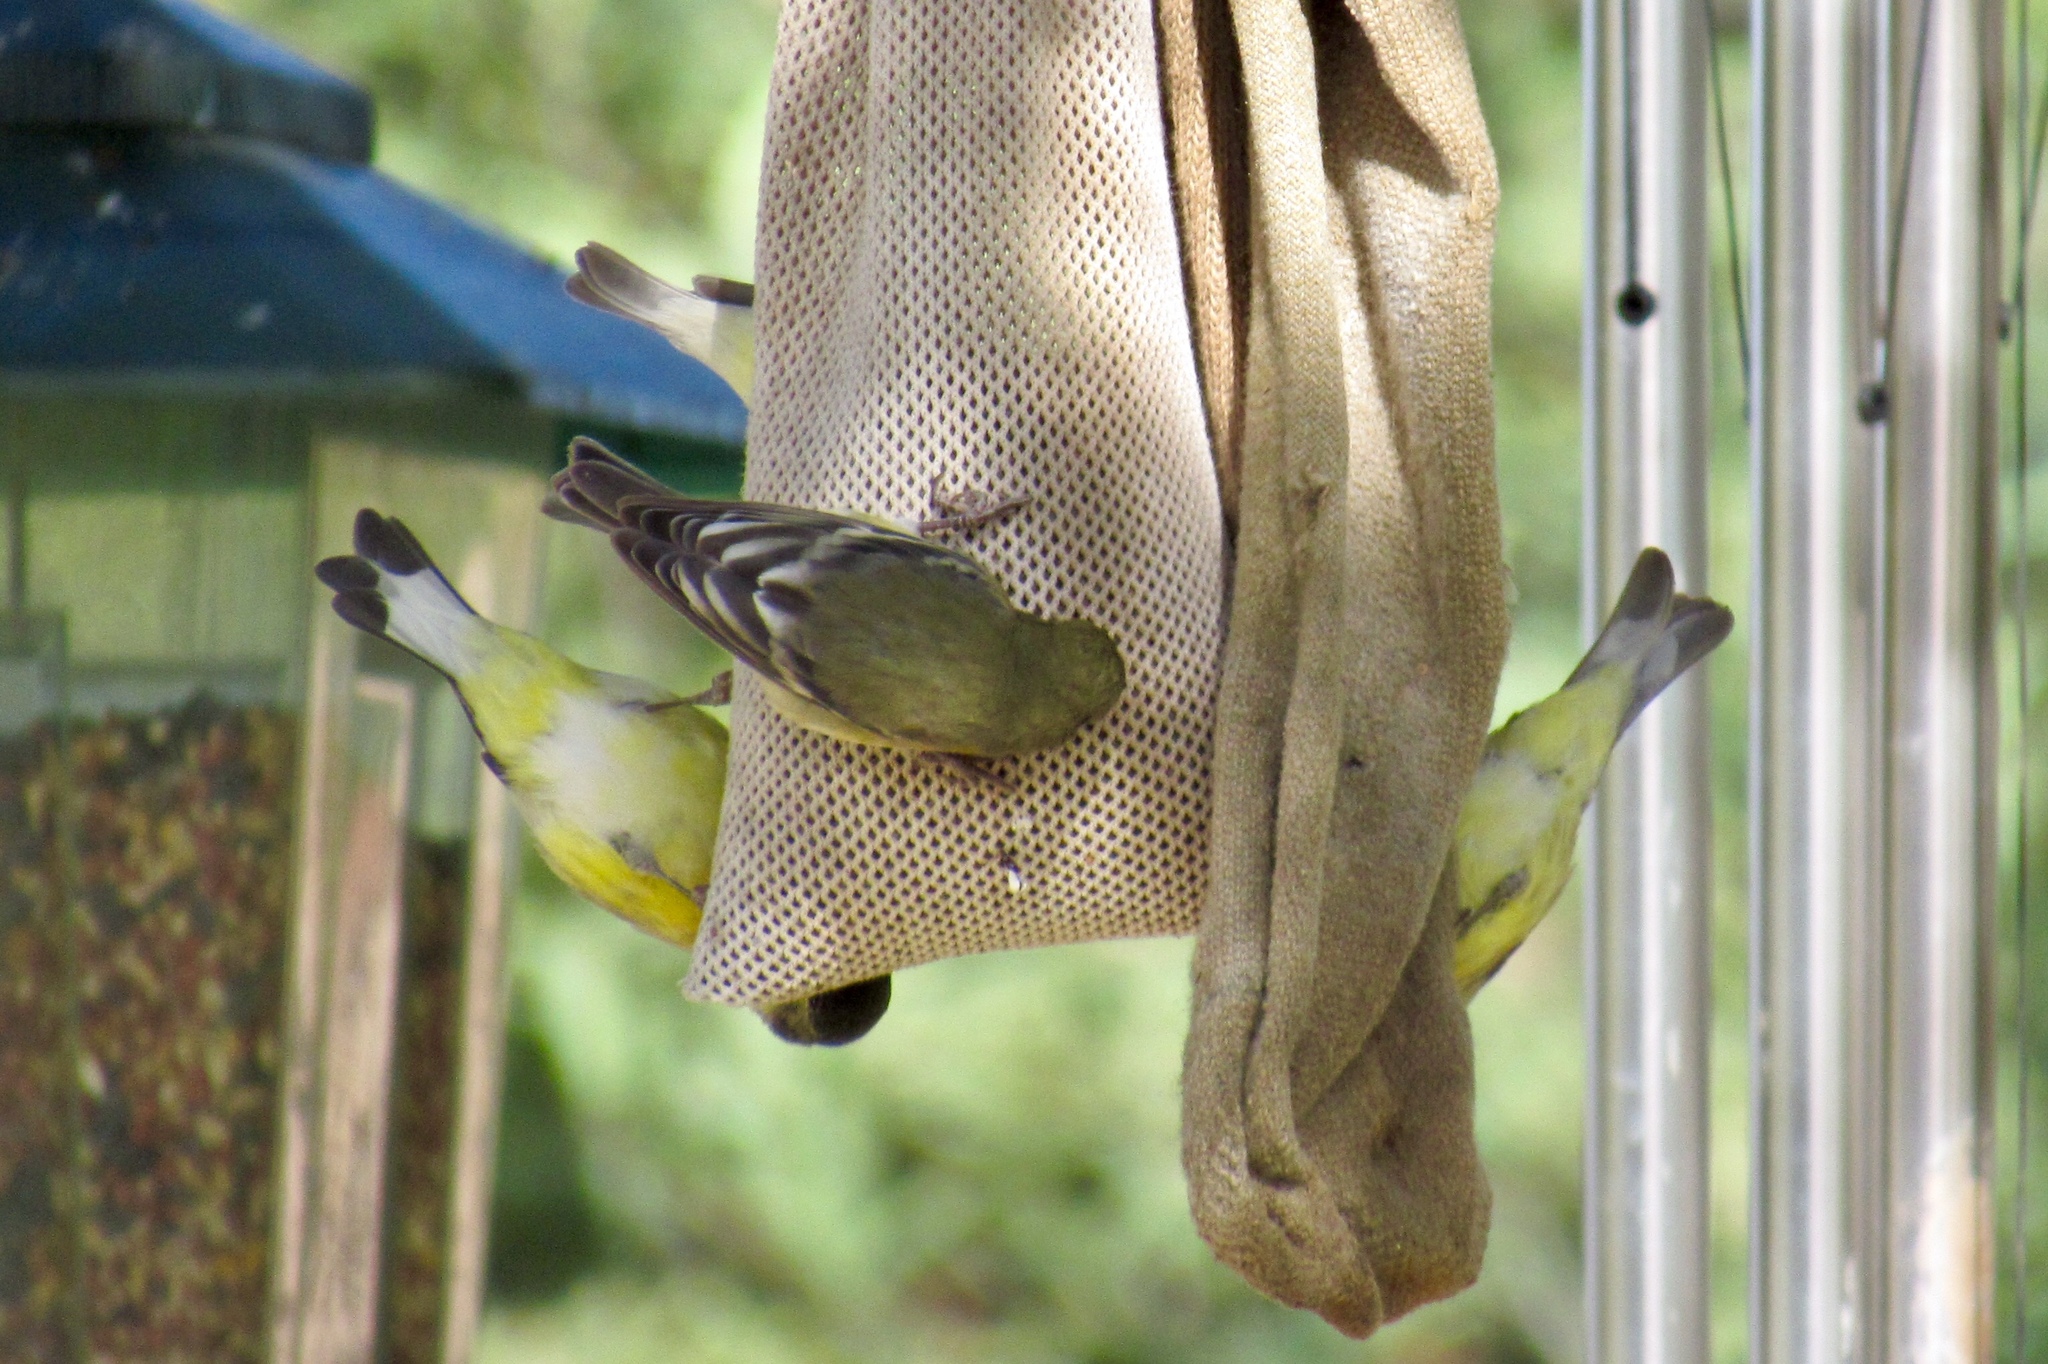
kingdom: Animalia
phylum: Chordata
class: Aves
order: Passeriformes
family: Fringillidae
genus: Spinus
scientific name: Spinus psaltria
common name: Lesser goldfinch
